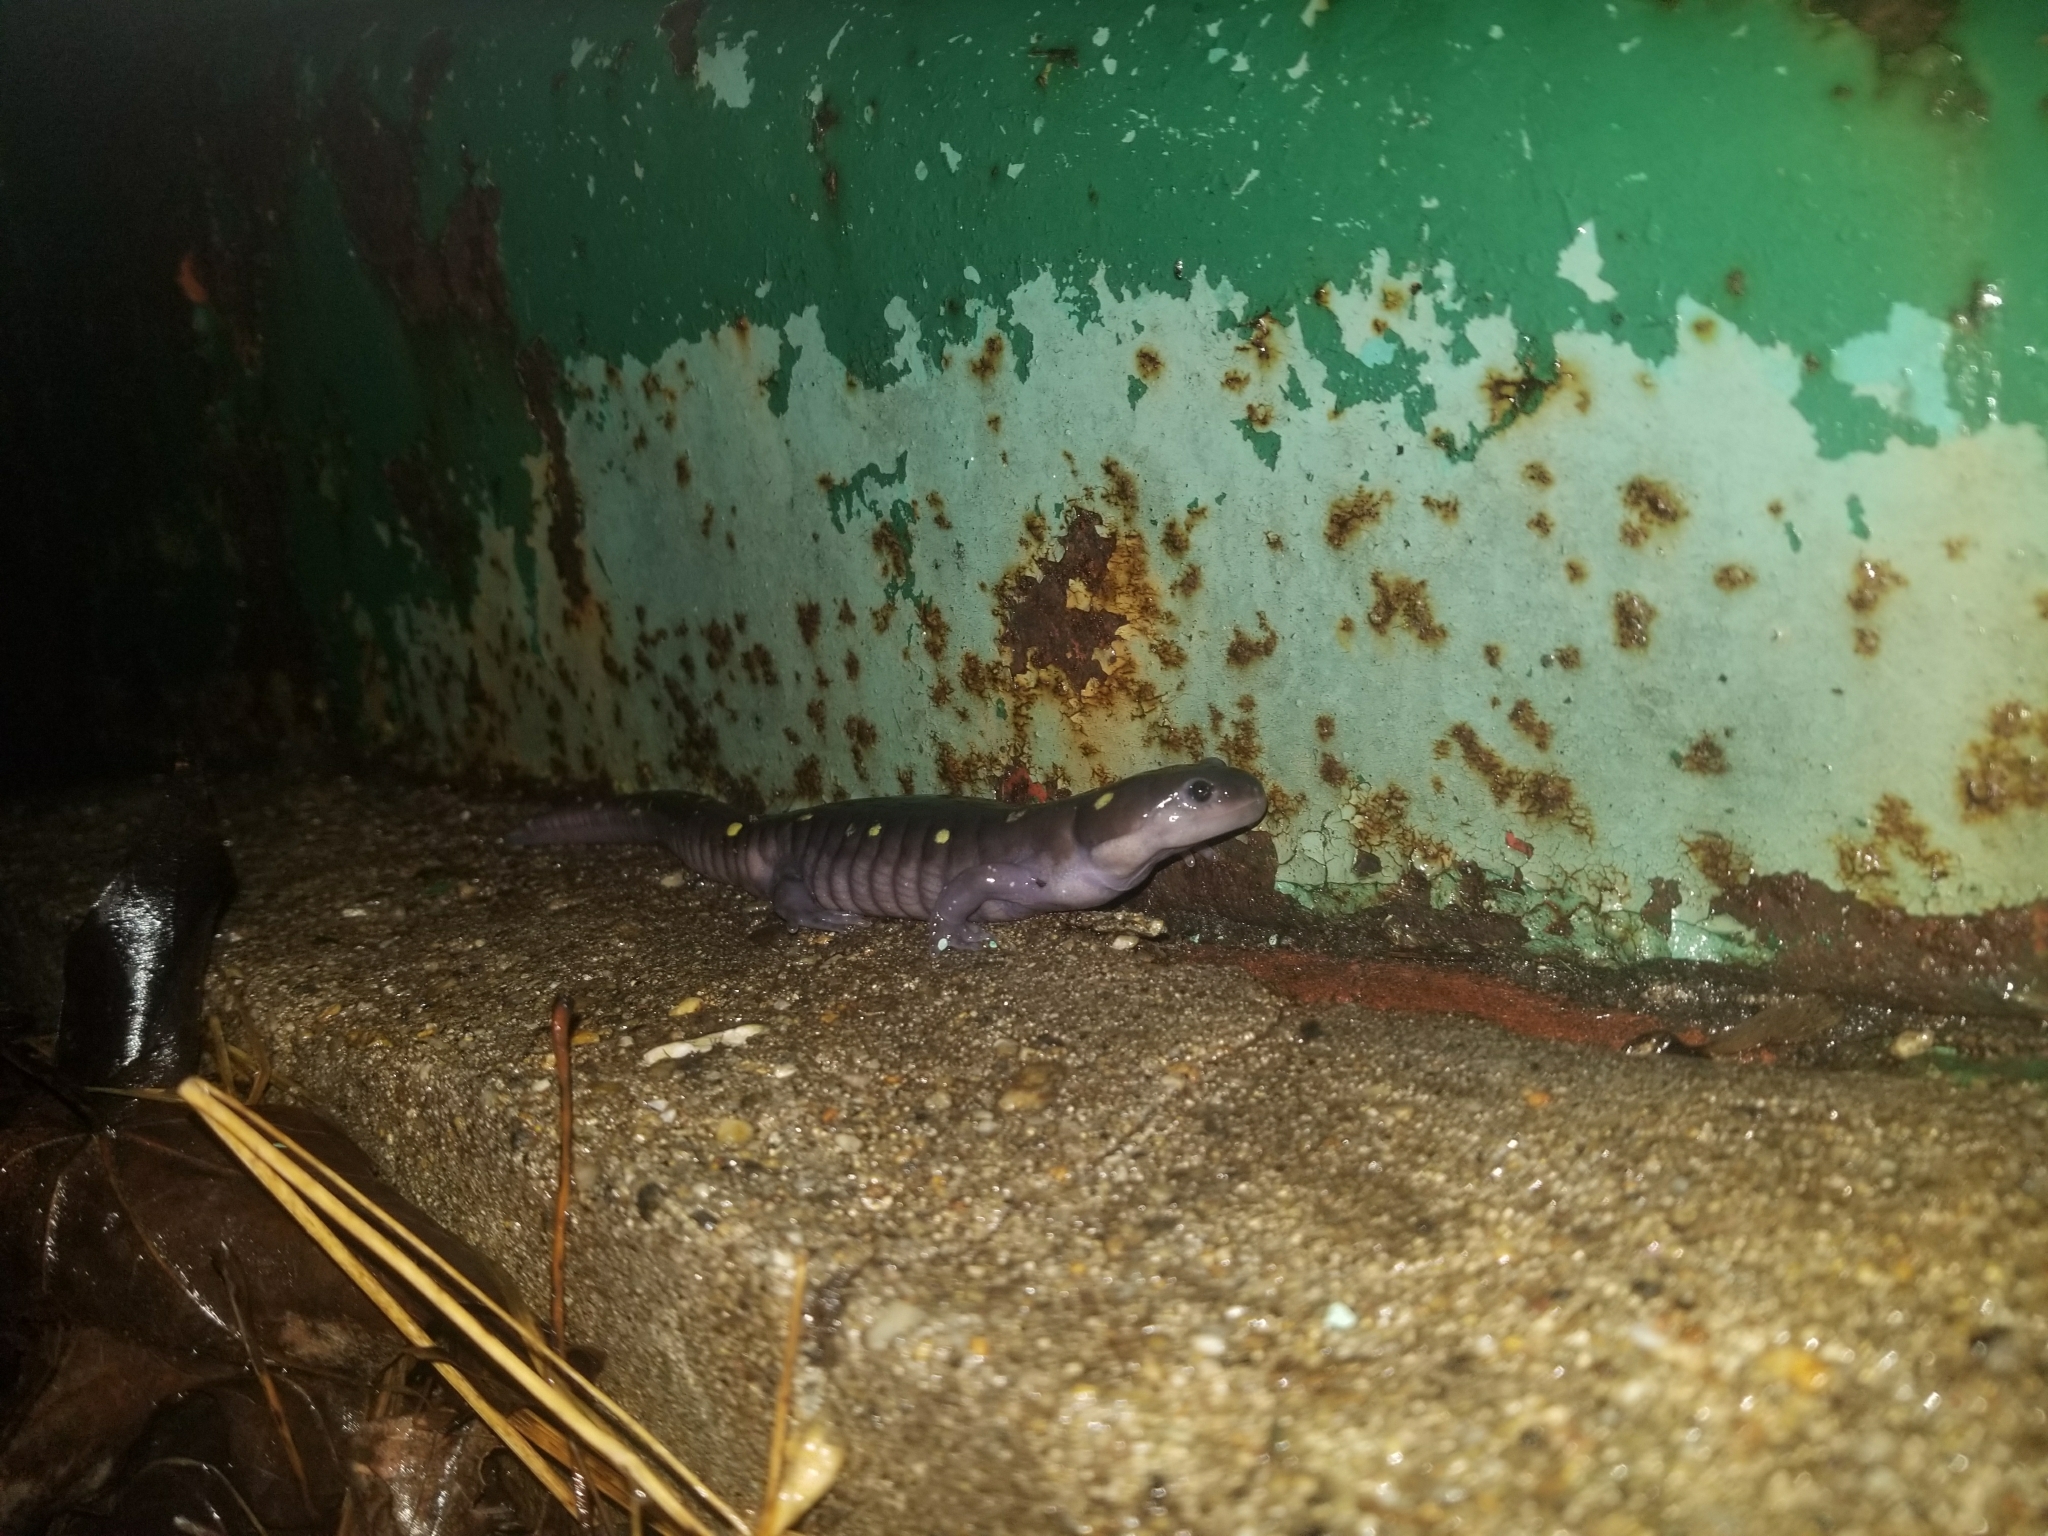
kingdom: Animalia
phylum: Chordata
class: Amphibia
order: Caudata
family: Ambystomatidae
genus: Ambystoma
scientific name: Ambystoma maculatum
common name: Spotted salamander
